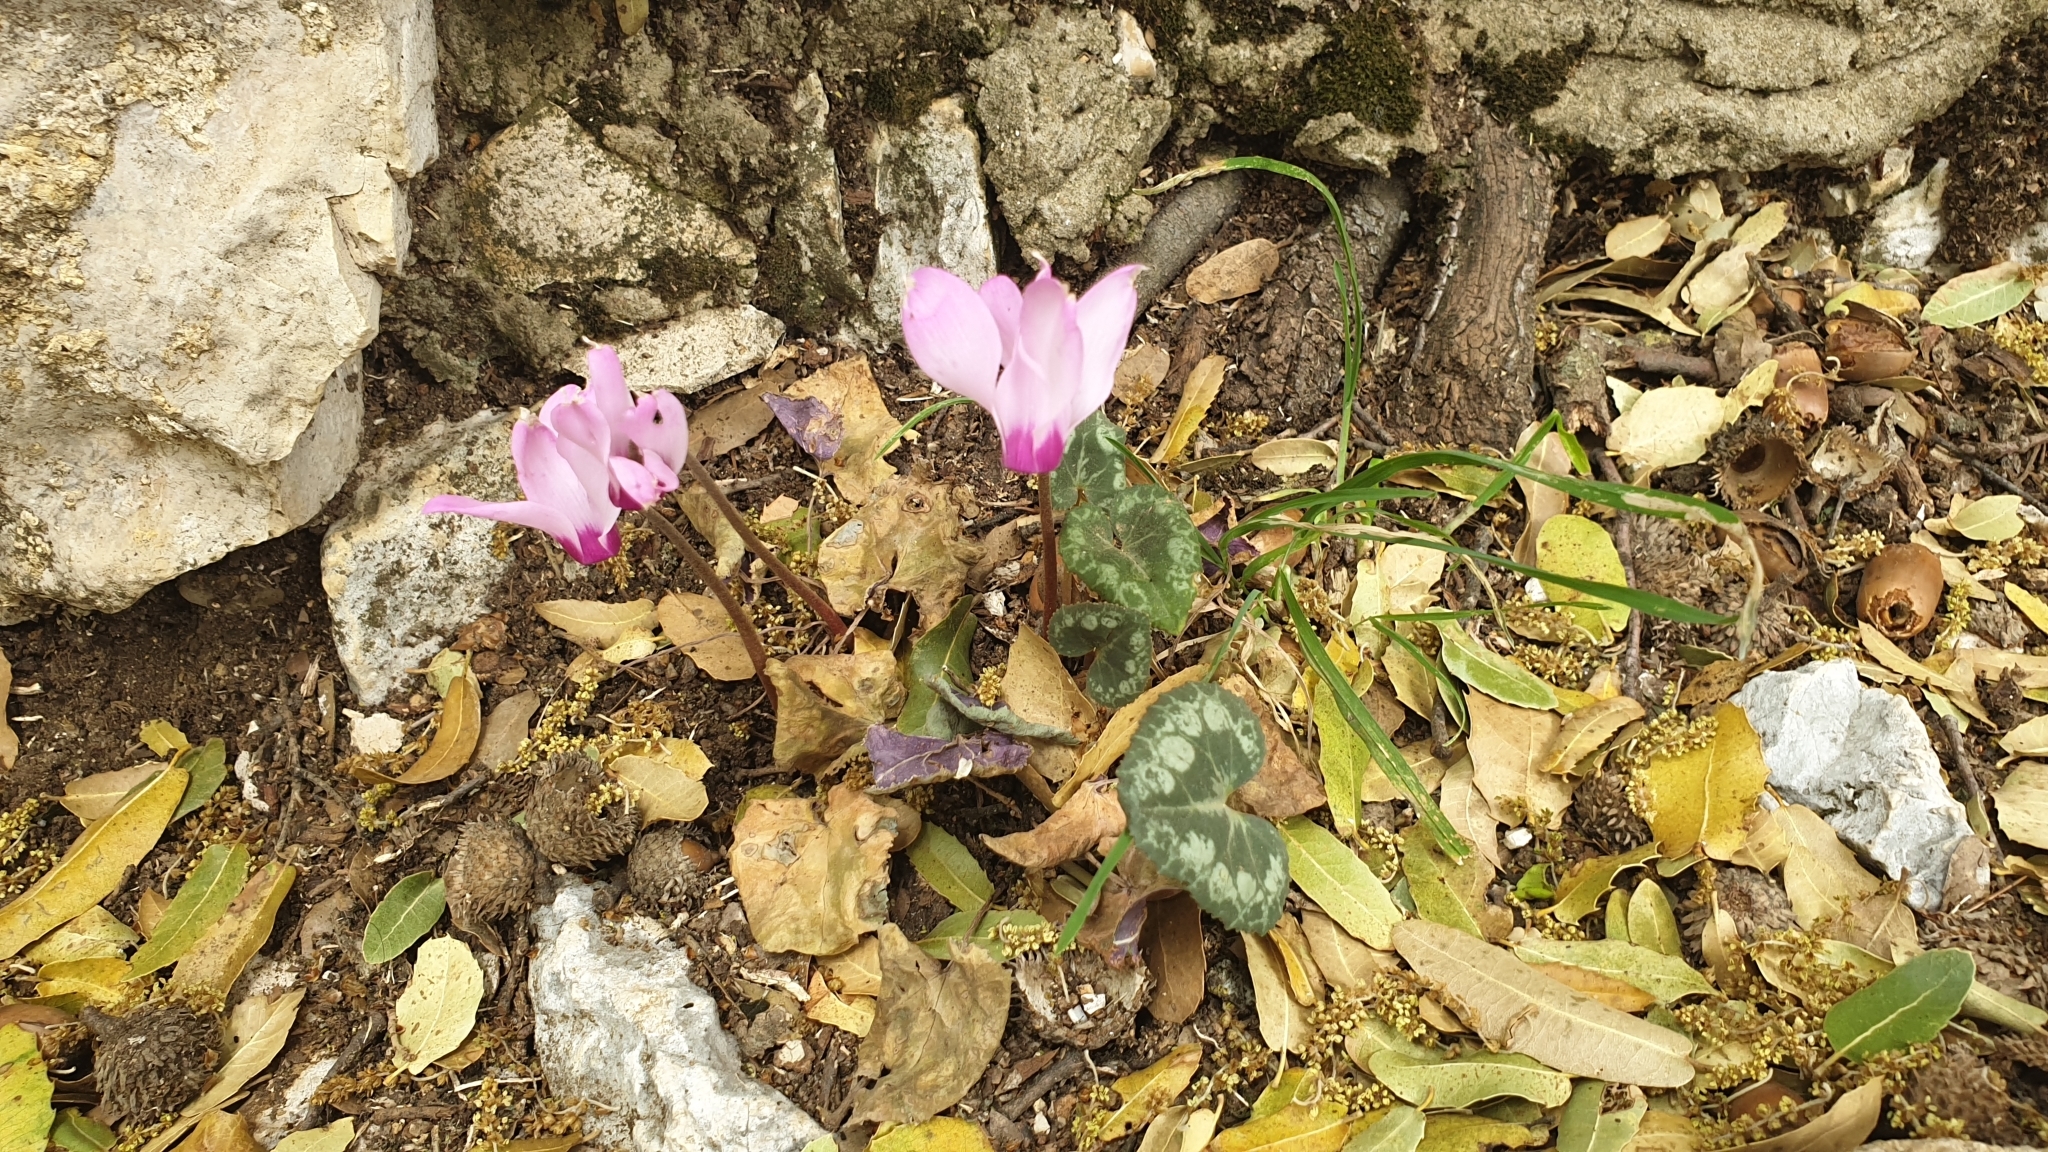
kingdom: Plantae
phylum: Tracheophyta
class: Magnoliopsida
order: Ericales
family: Primulaceae
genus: Cyclamen
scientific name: Cyclamen persicum
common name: Florist's cyclamen
